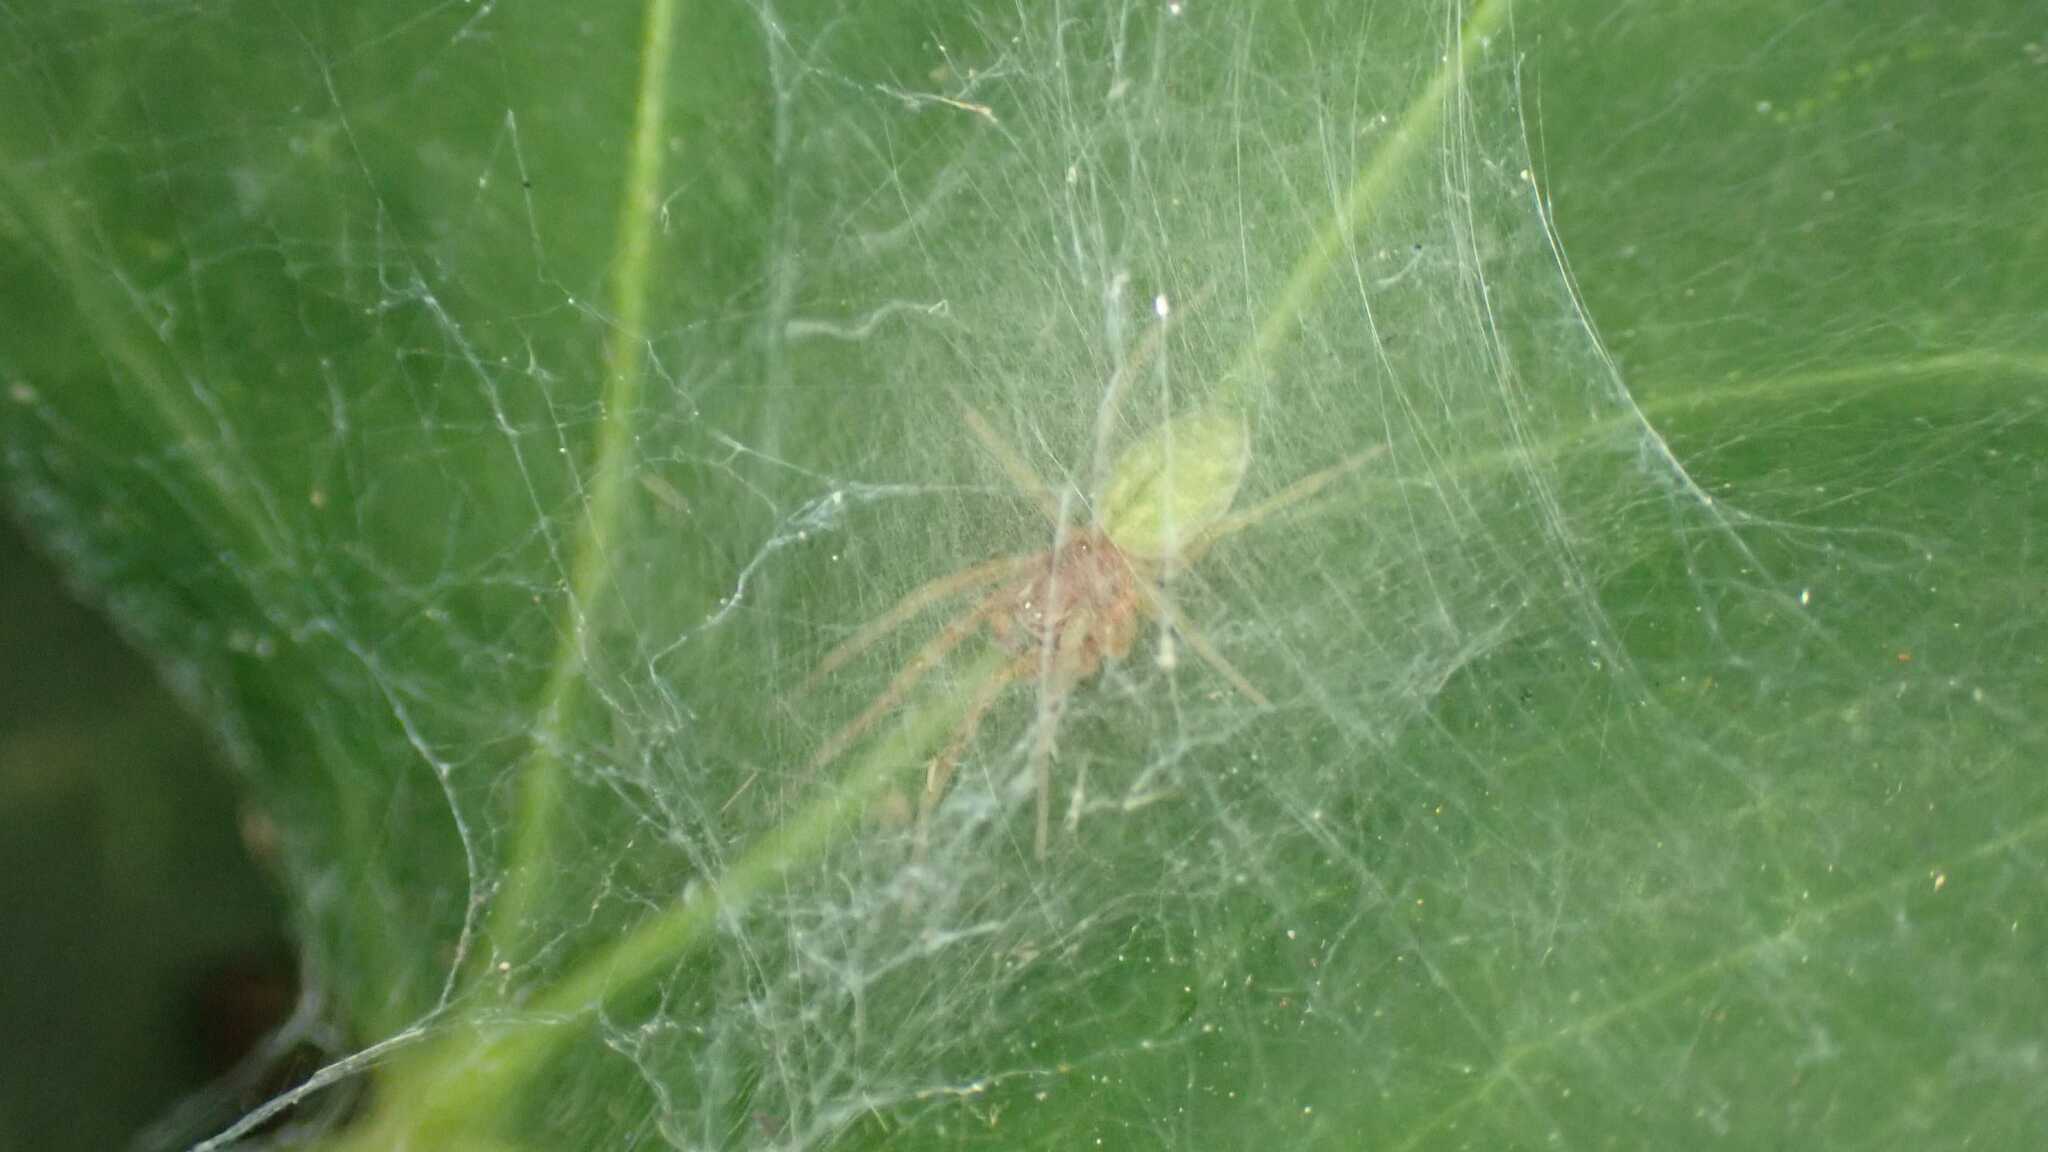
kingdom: Animalia
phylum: Arthropoda
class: Arachnida
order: Araneae
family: Dictynidae
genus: Nigma
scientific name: Nigma walckenaeri
